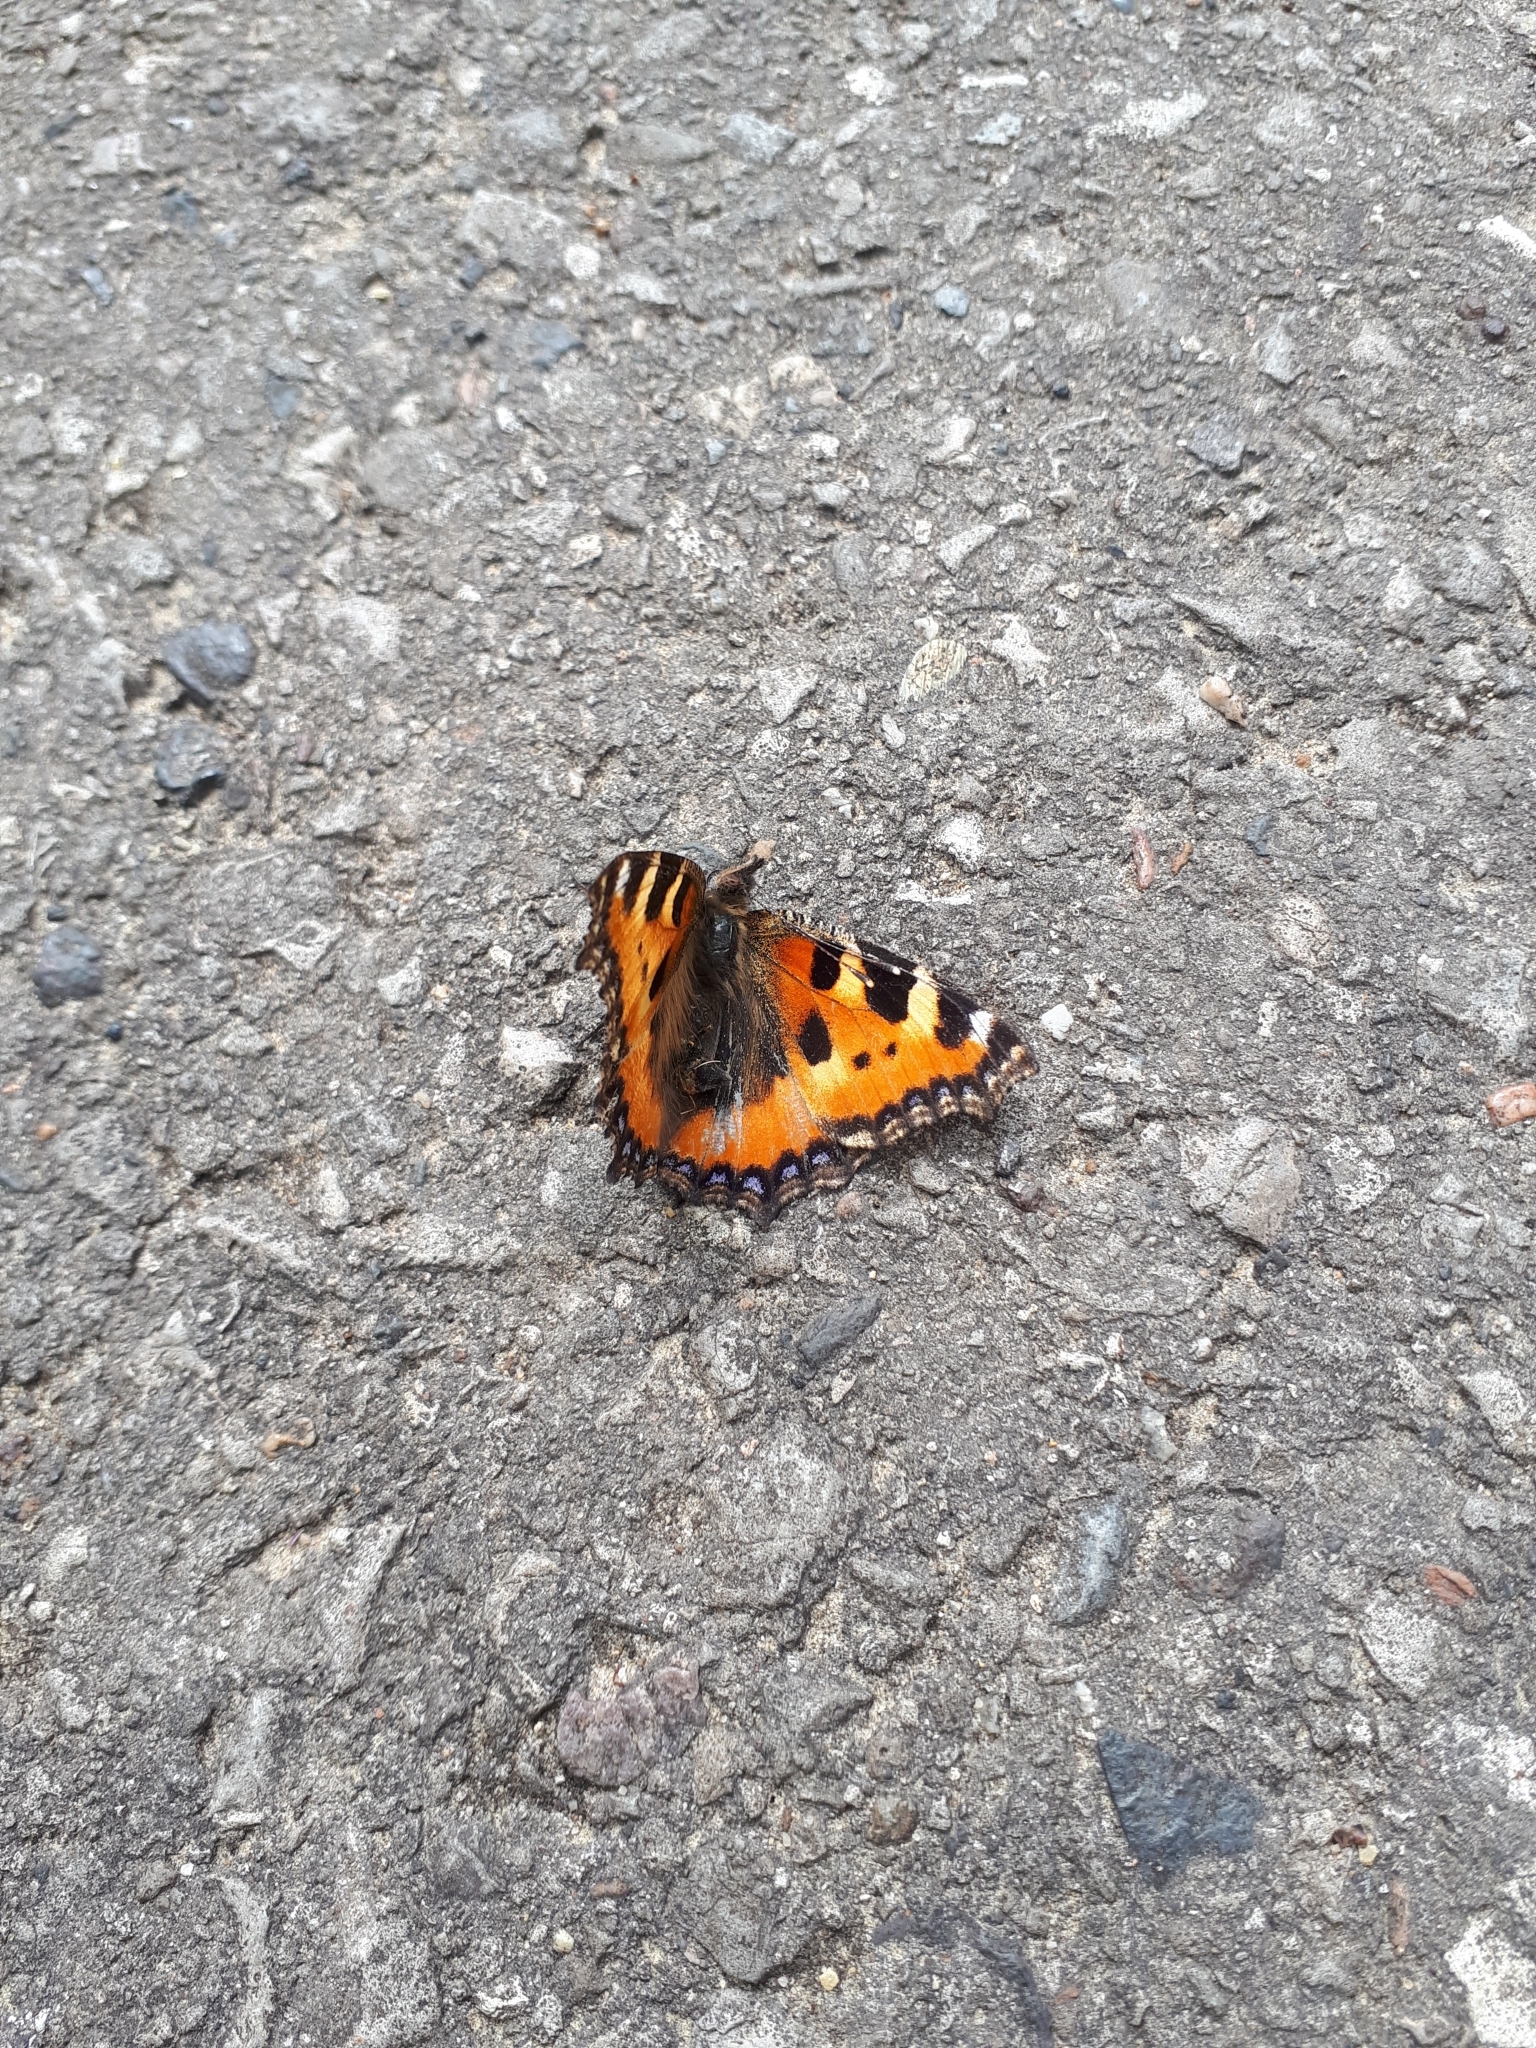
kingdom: Animalia
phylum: Arthropoda
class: Insecta
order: Lepidoptera
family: Nymphalidae
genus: Aglais
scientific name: Aglais urticae
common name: Small tortoiseshell
